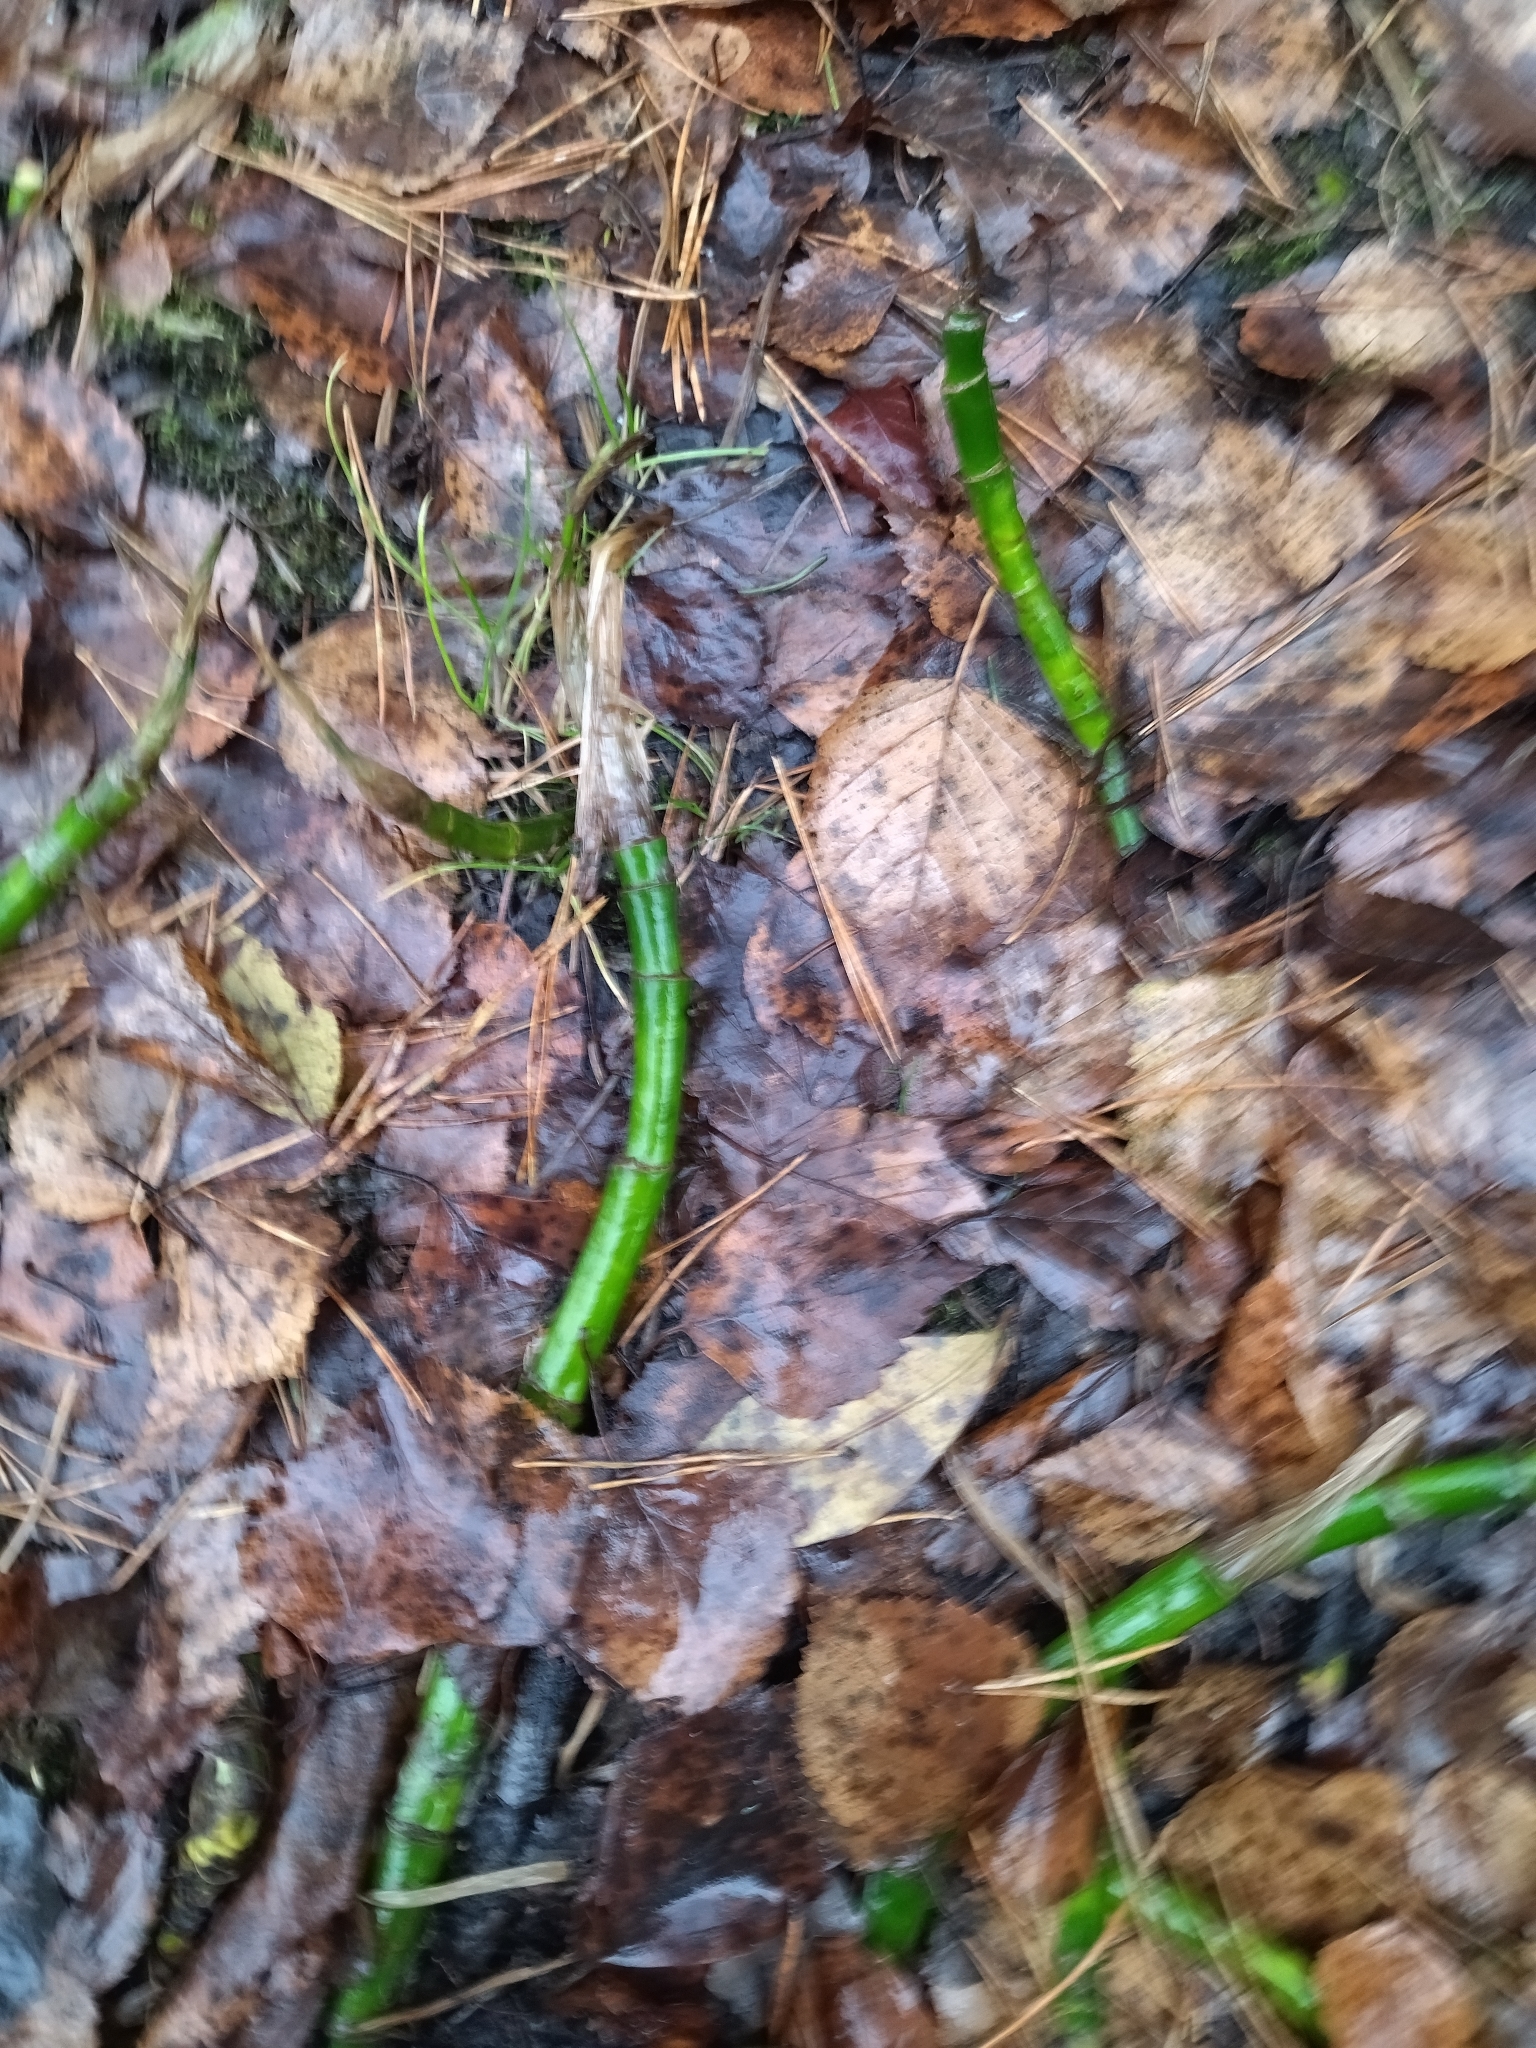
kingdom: Plantae
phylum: Tracheophyta
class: Liliopsida
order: Alismatales
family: Araceae
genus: Calla
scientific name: Calla palustris
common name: Bog arum
